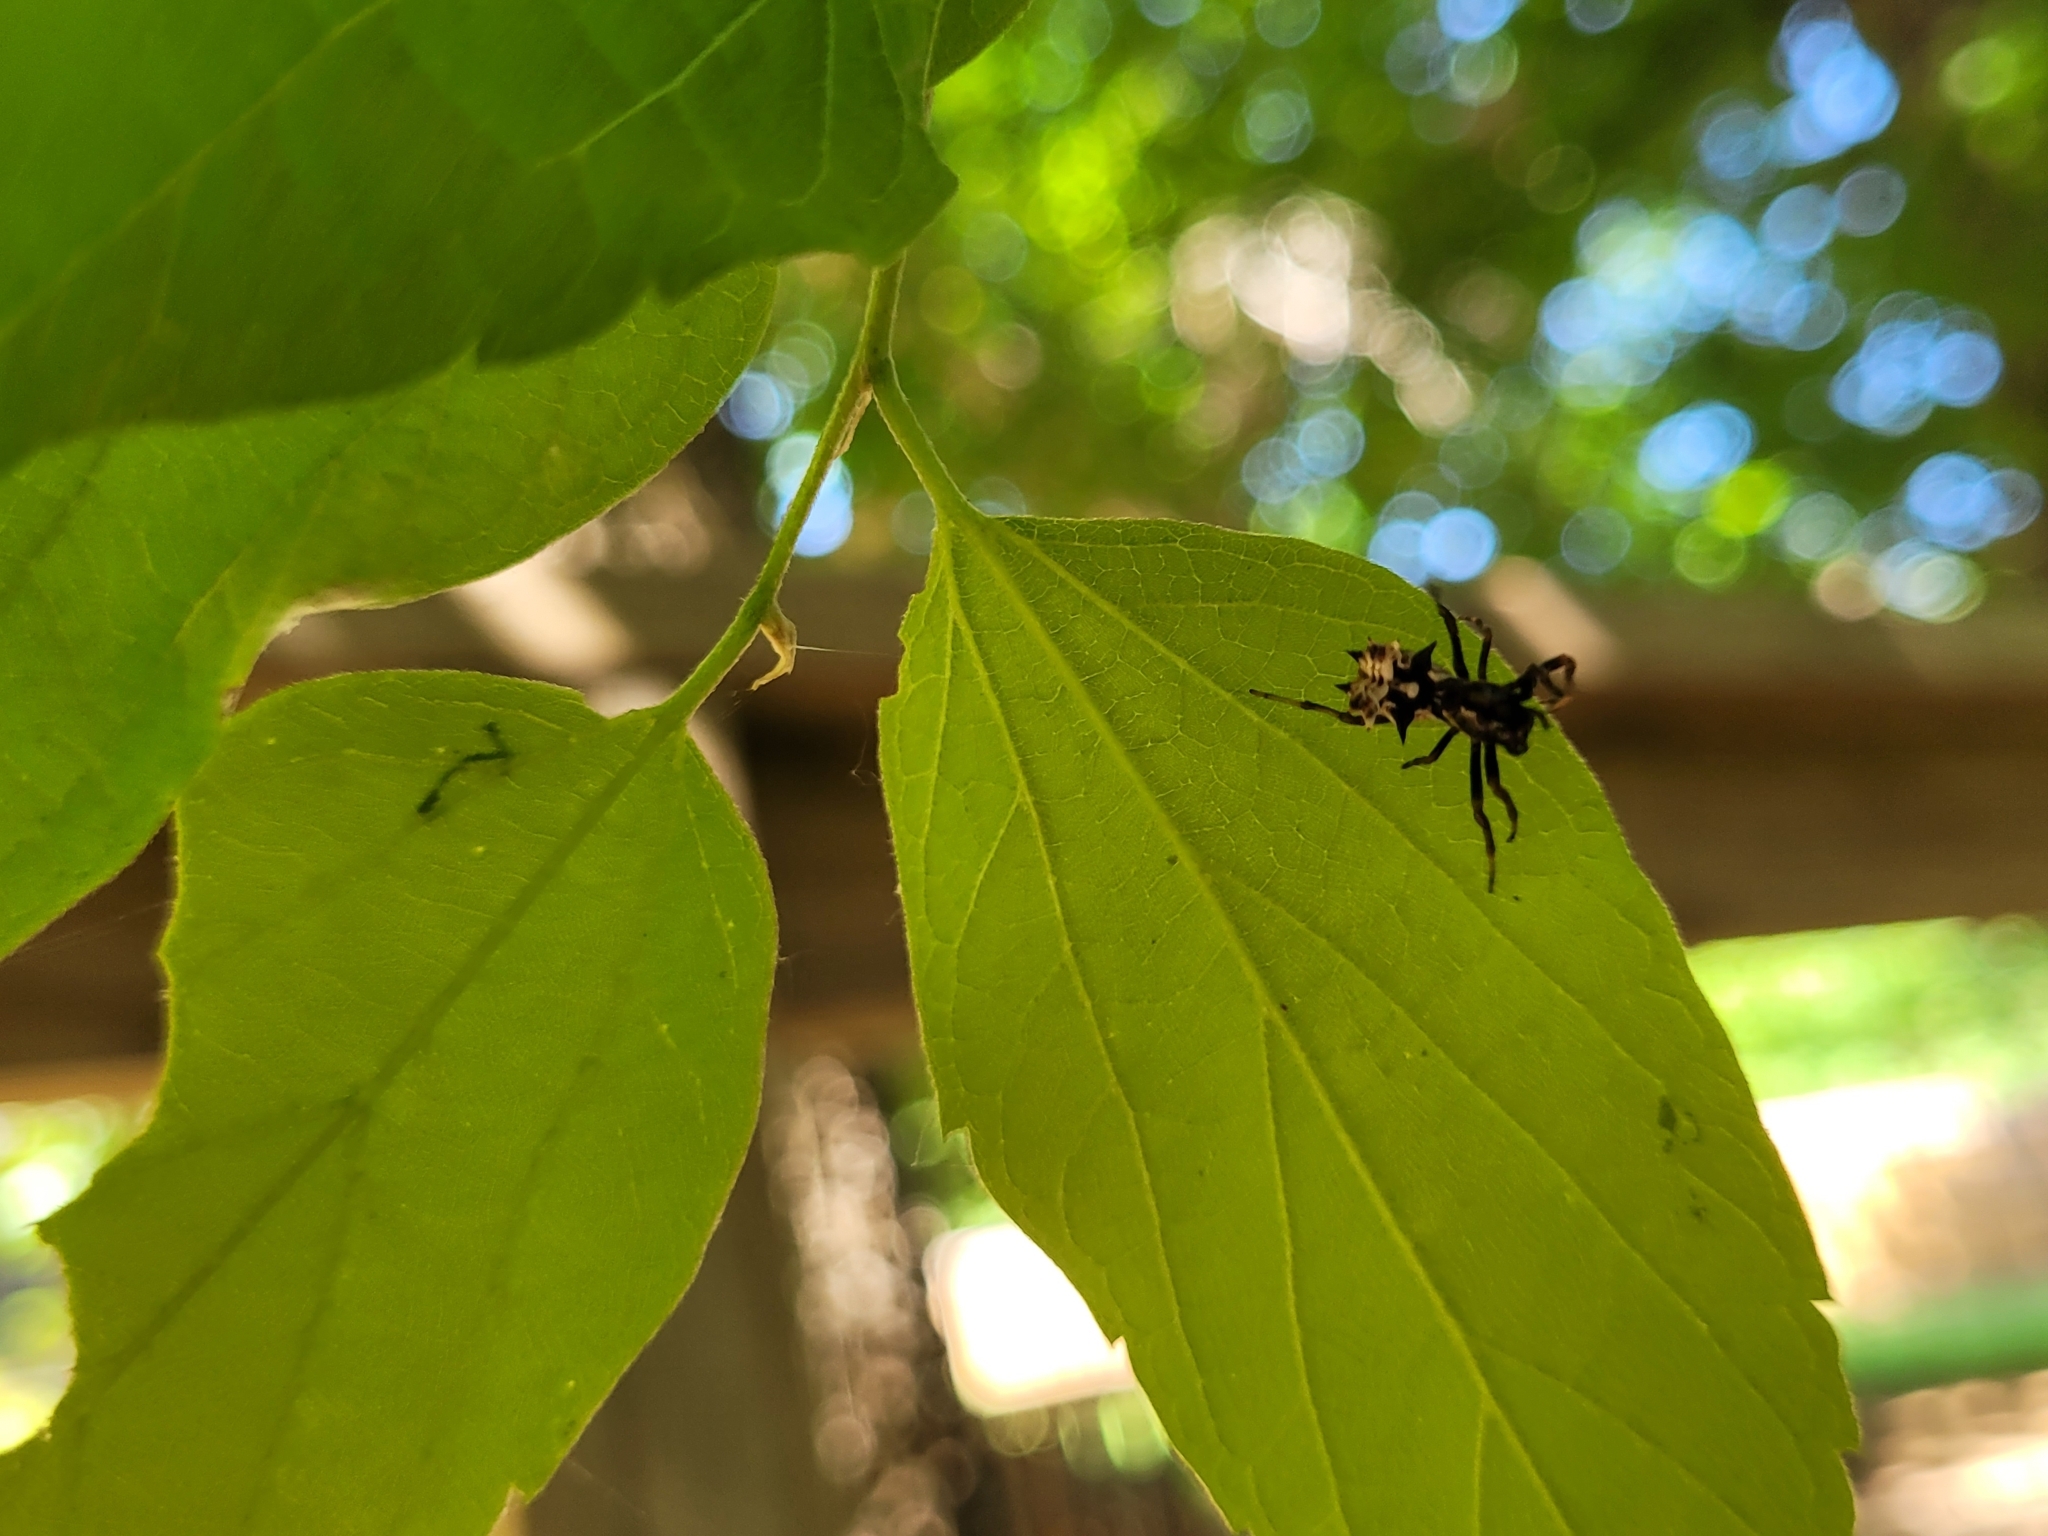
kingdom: Animalia
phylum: Arthropoda
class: Arachnida
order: Araneae
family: Araneidae
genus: Micrathena
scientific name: Micrathena gracilis
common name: Orb weavers
